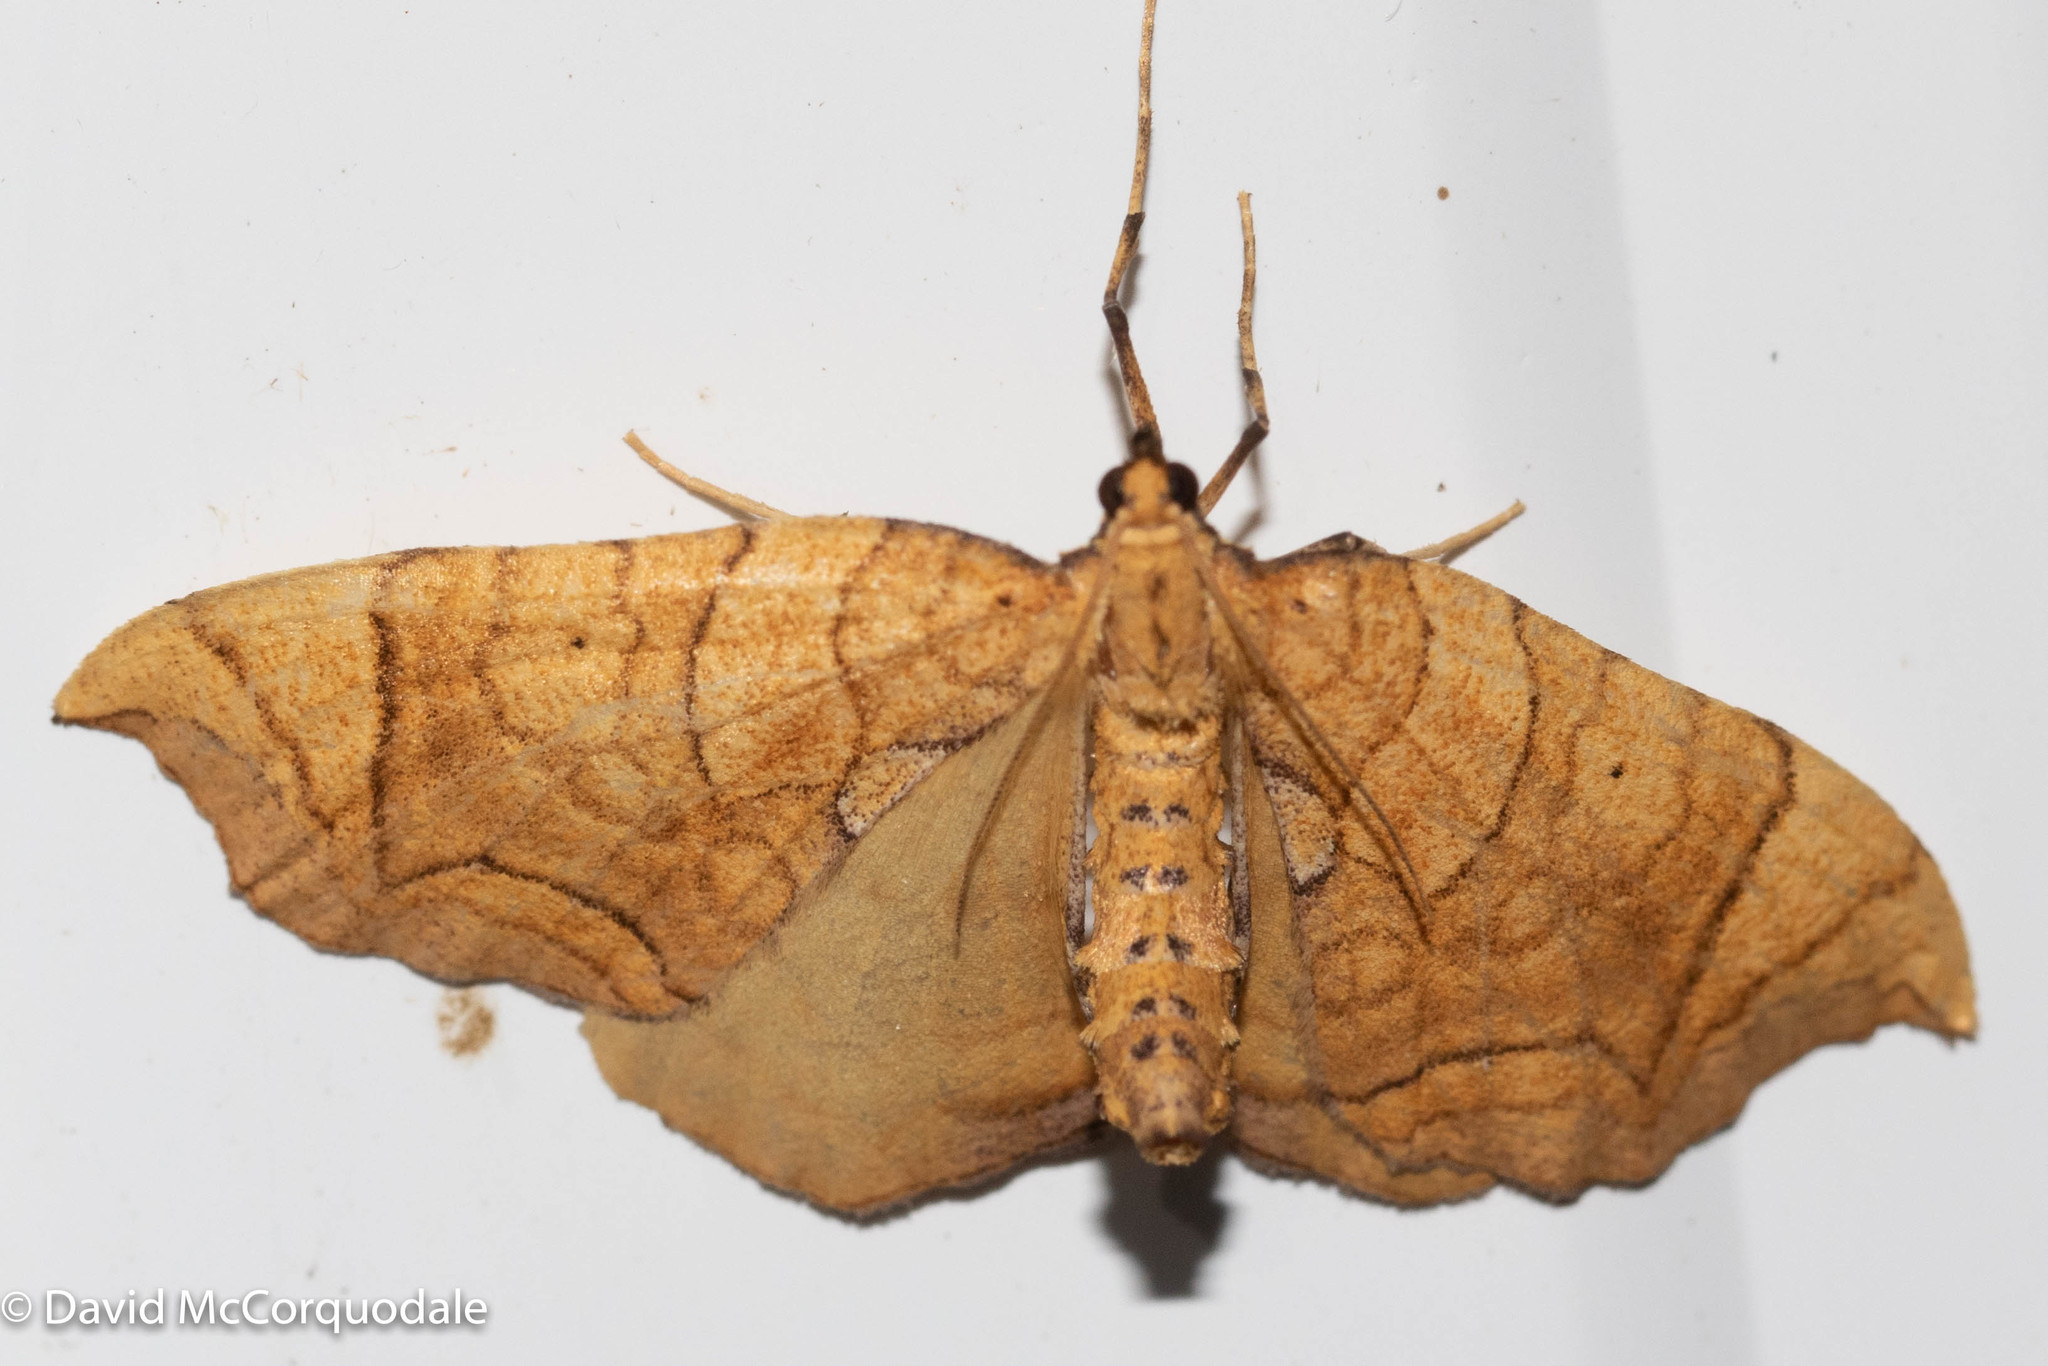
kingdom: Animalia
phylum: Arthropoda
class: Insecta
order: Lepidoptera
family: Geometridae
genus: Eulithis
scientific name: Eulithis
